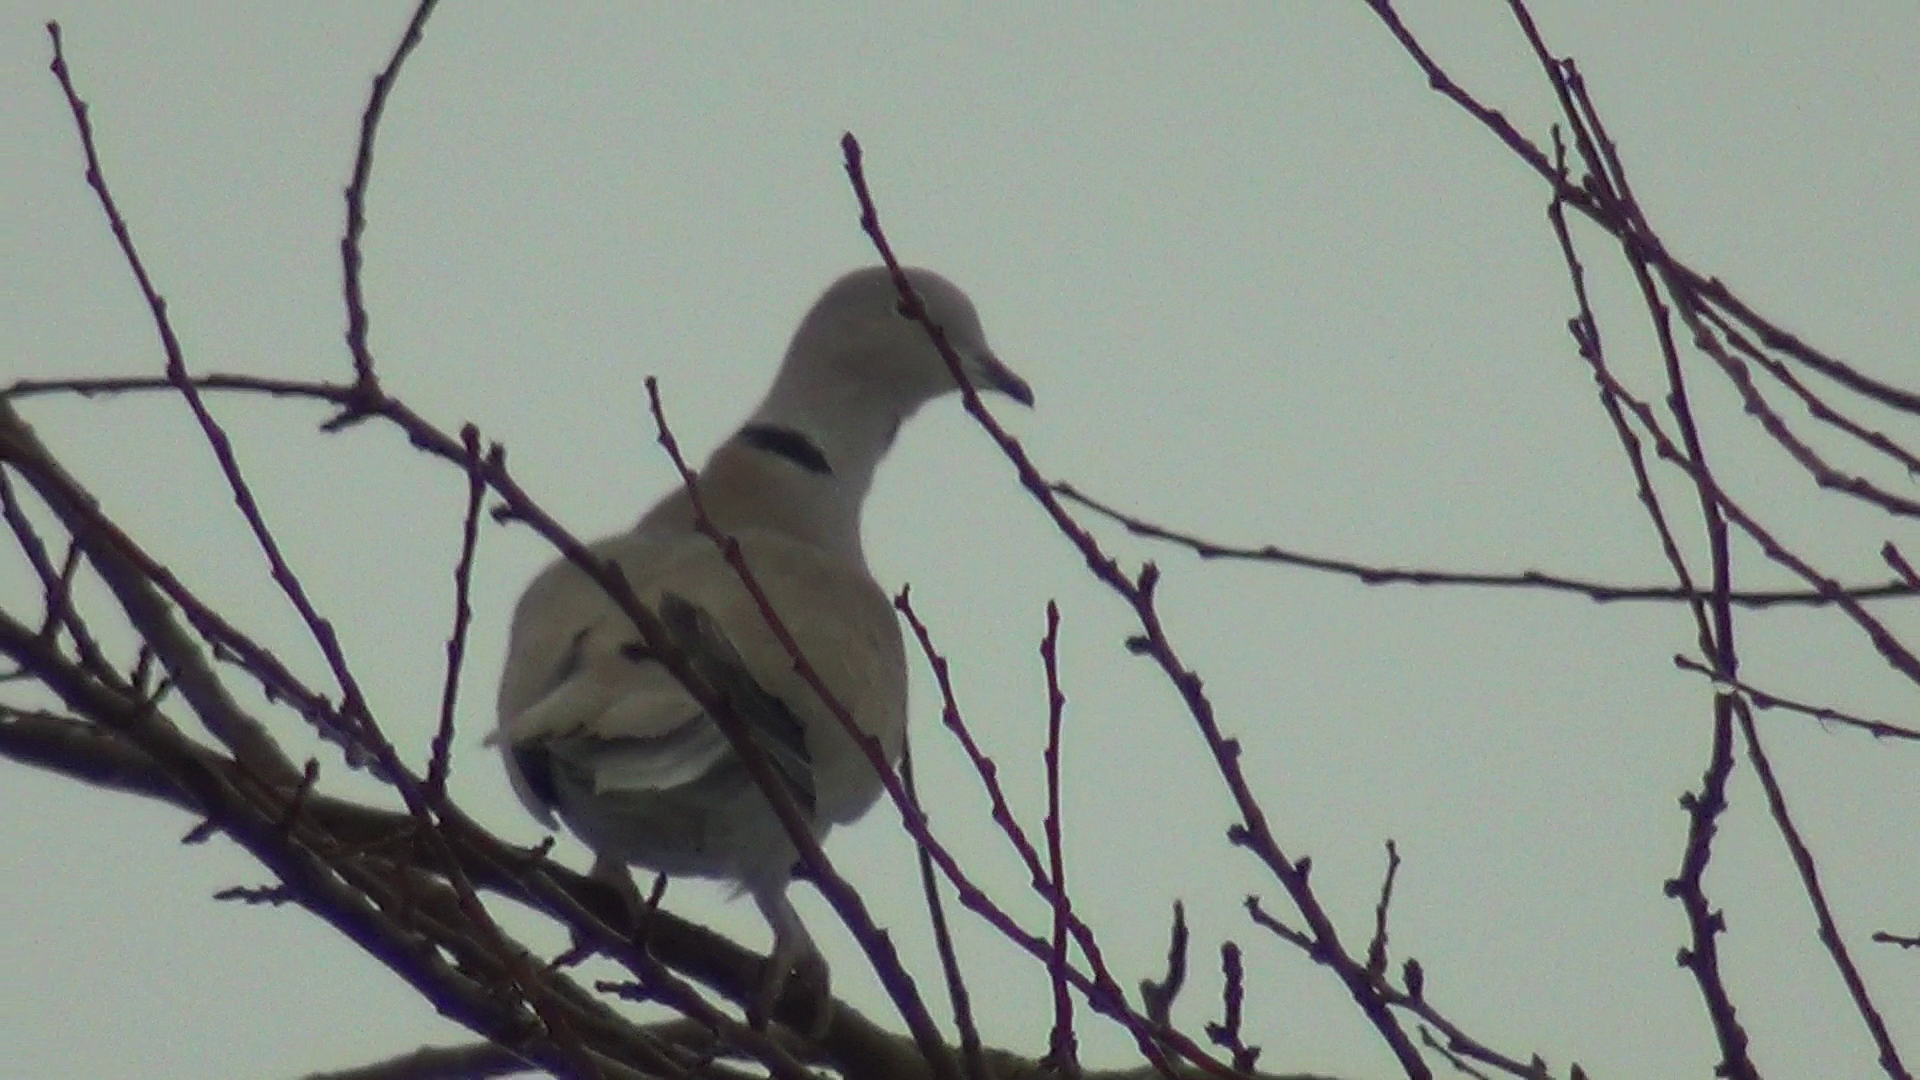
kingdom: Animalia
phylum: Chordata
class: Aves
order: Columbiformes
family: Columbidae
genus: Streptopelia
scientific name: Streptopelia decaocto
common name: Eurasian collared dove
